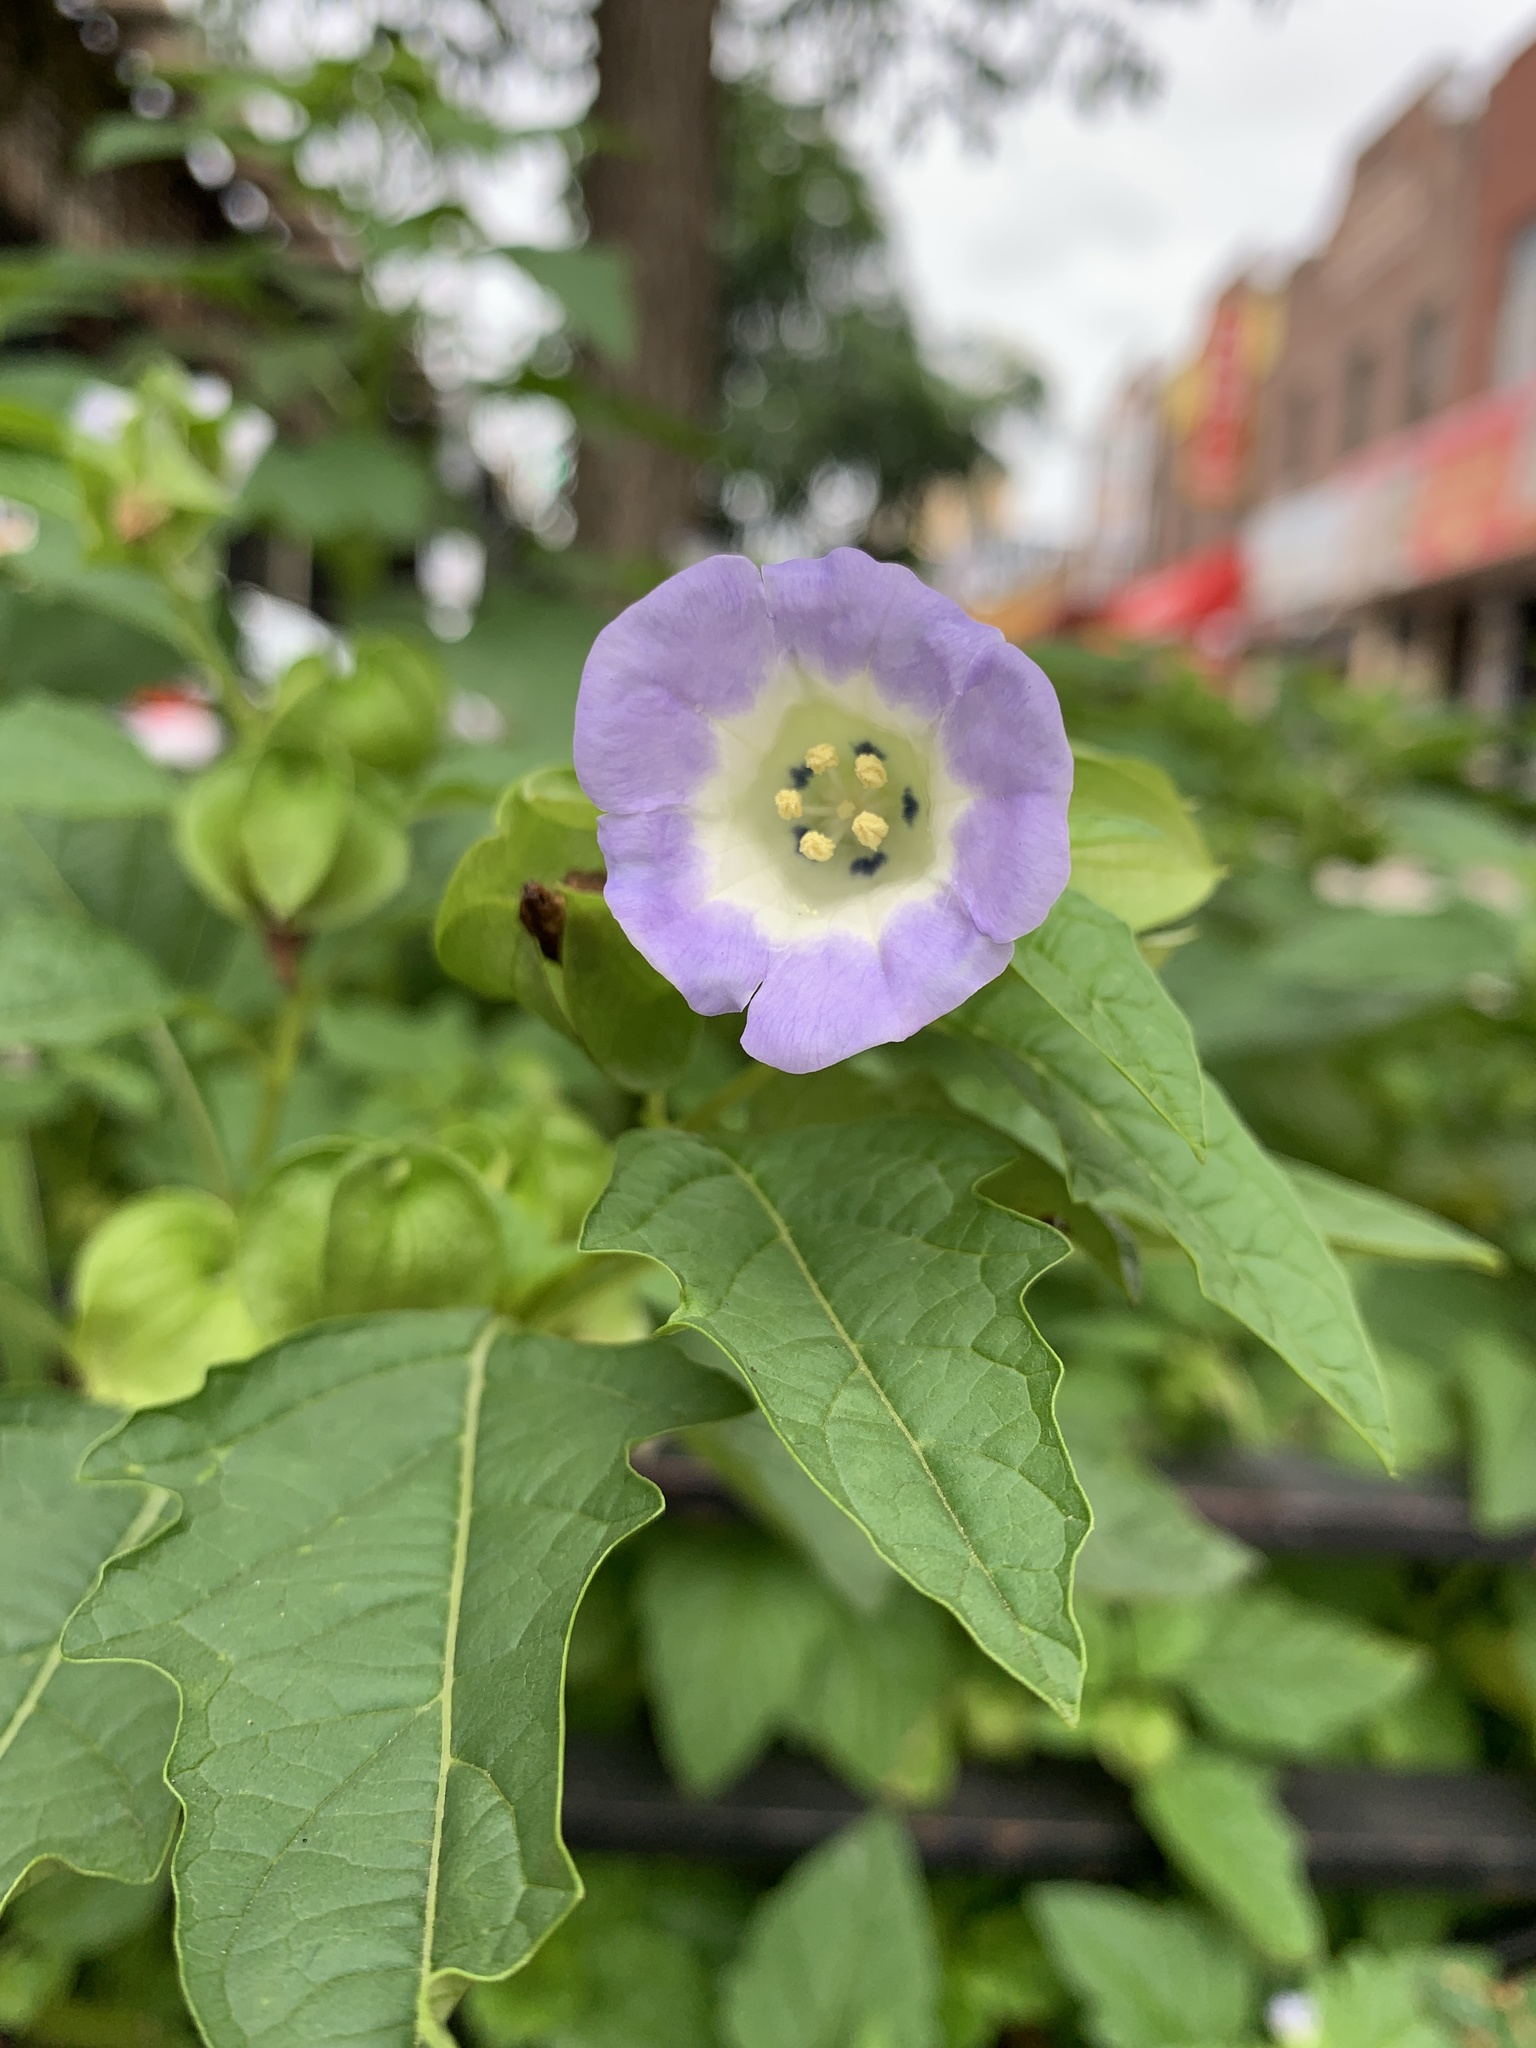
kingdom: Plantae
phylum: Tracheophyta
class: Magnoliopsida
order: Solanales
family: Solanaceae
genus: Nicandra
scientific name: Nicandra physalodes
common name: Apple-of-peru
